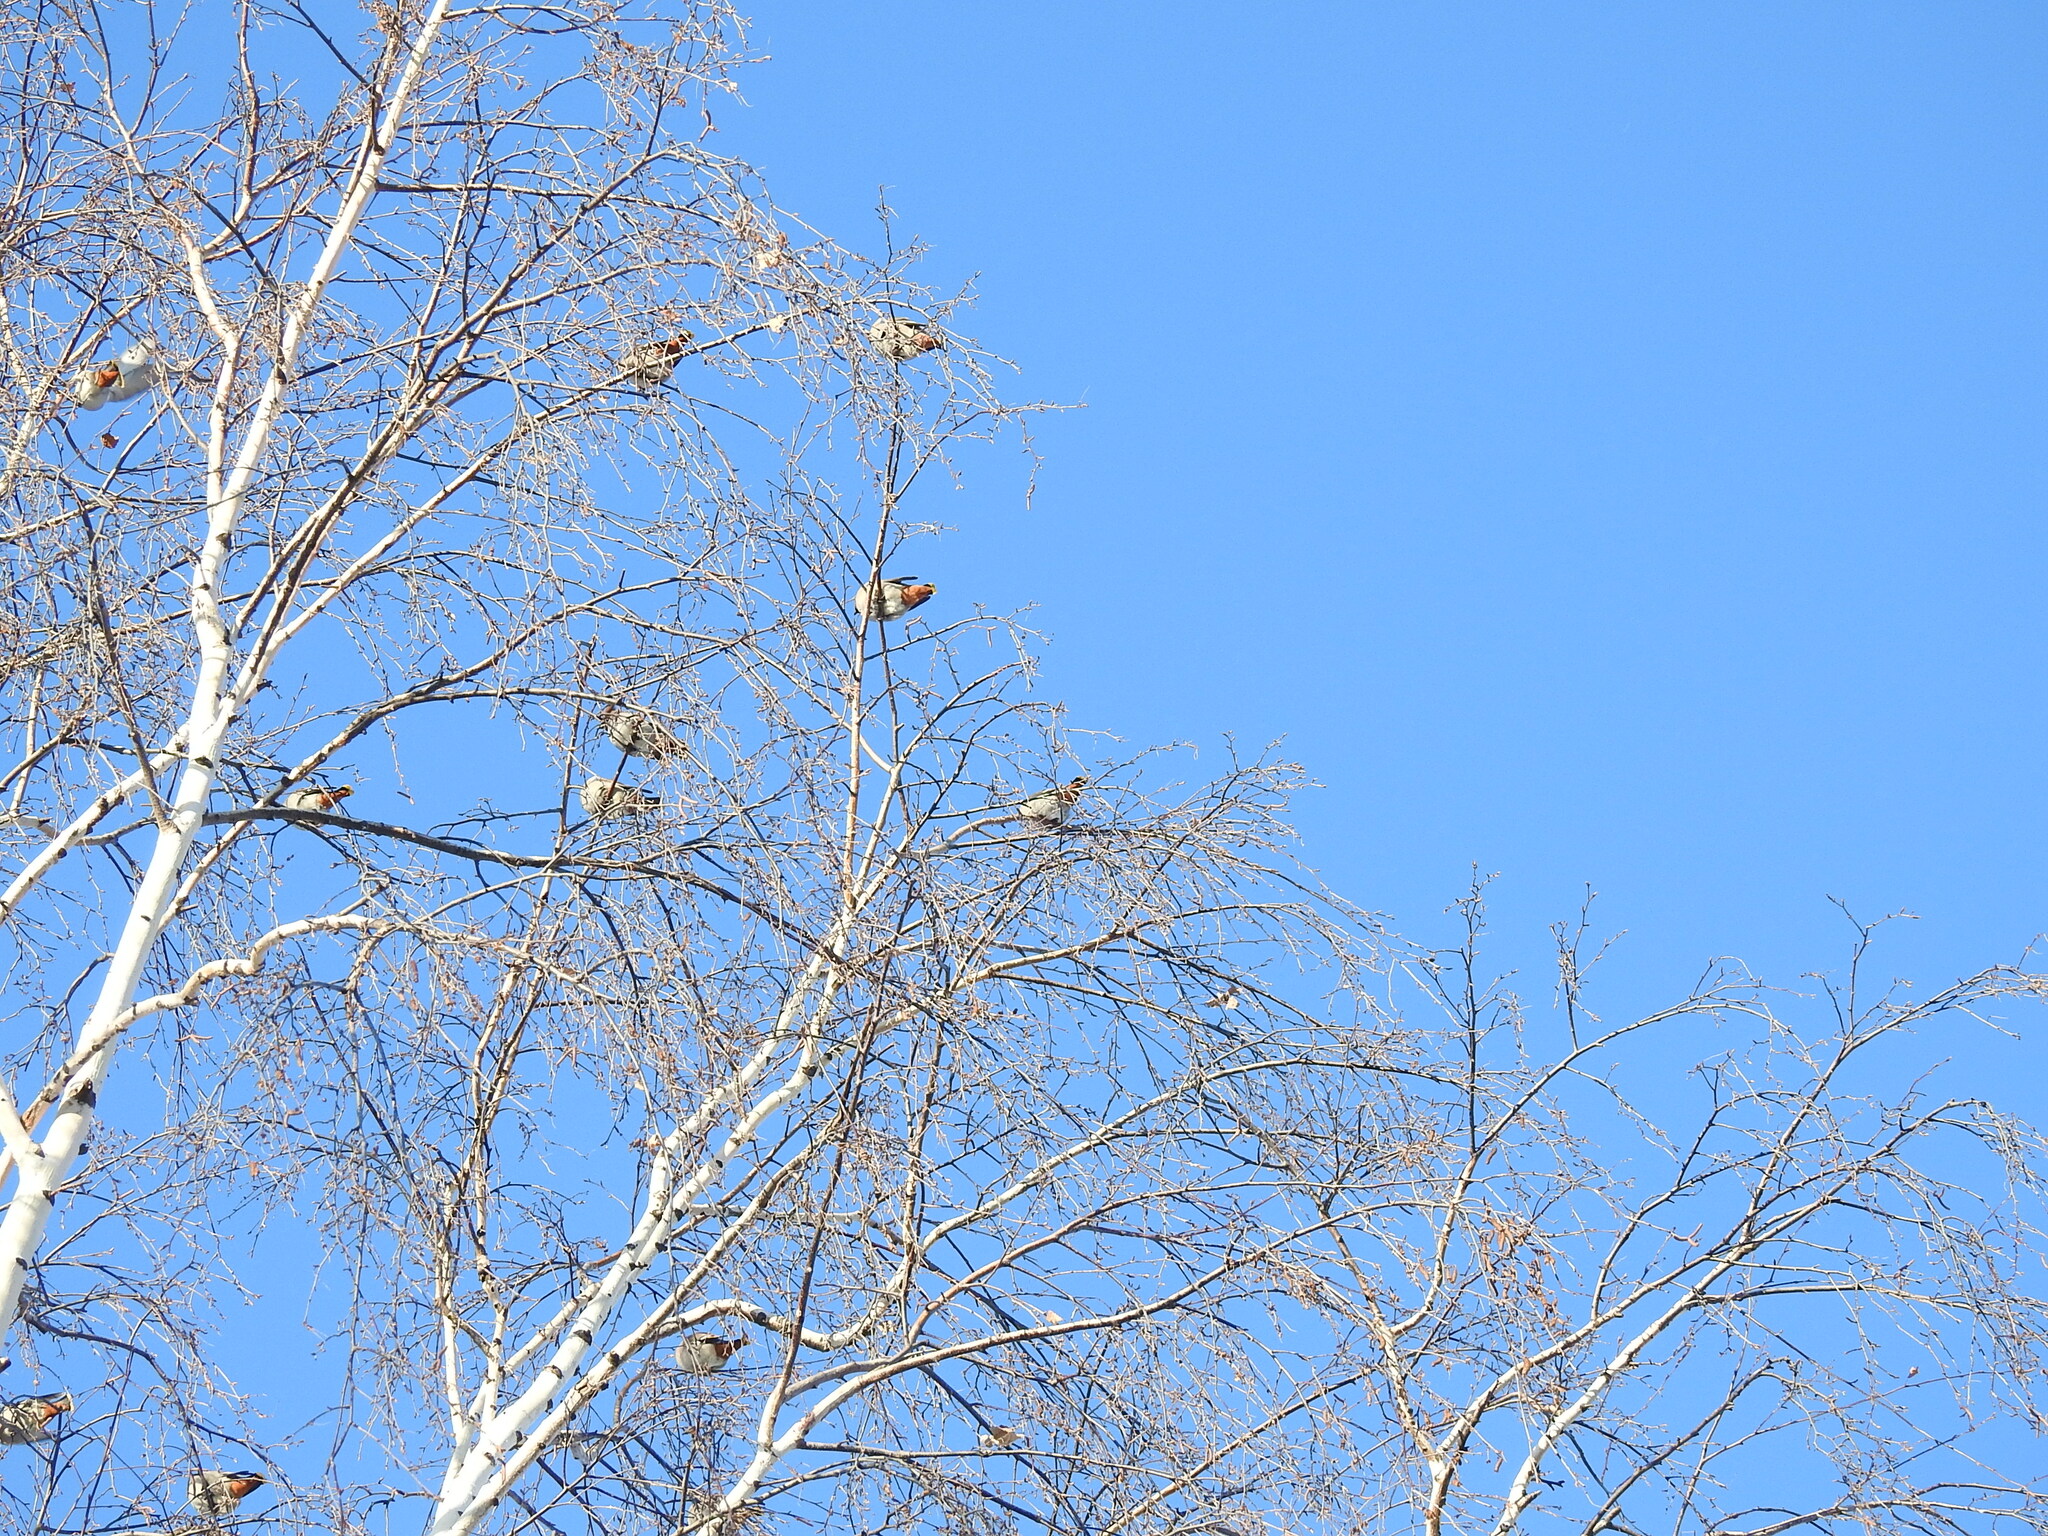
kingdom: Animalia
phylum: Chordata
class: Aves
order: Passeriformes
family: Bombycillidae
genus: Bombycilla
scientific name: Bombycilla garrulus
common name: Bohemian waxwing
